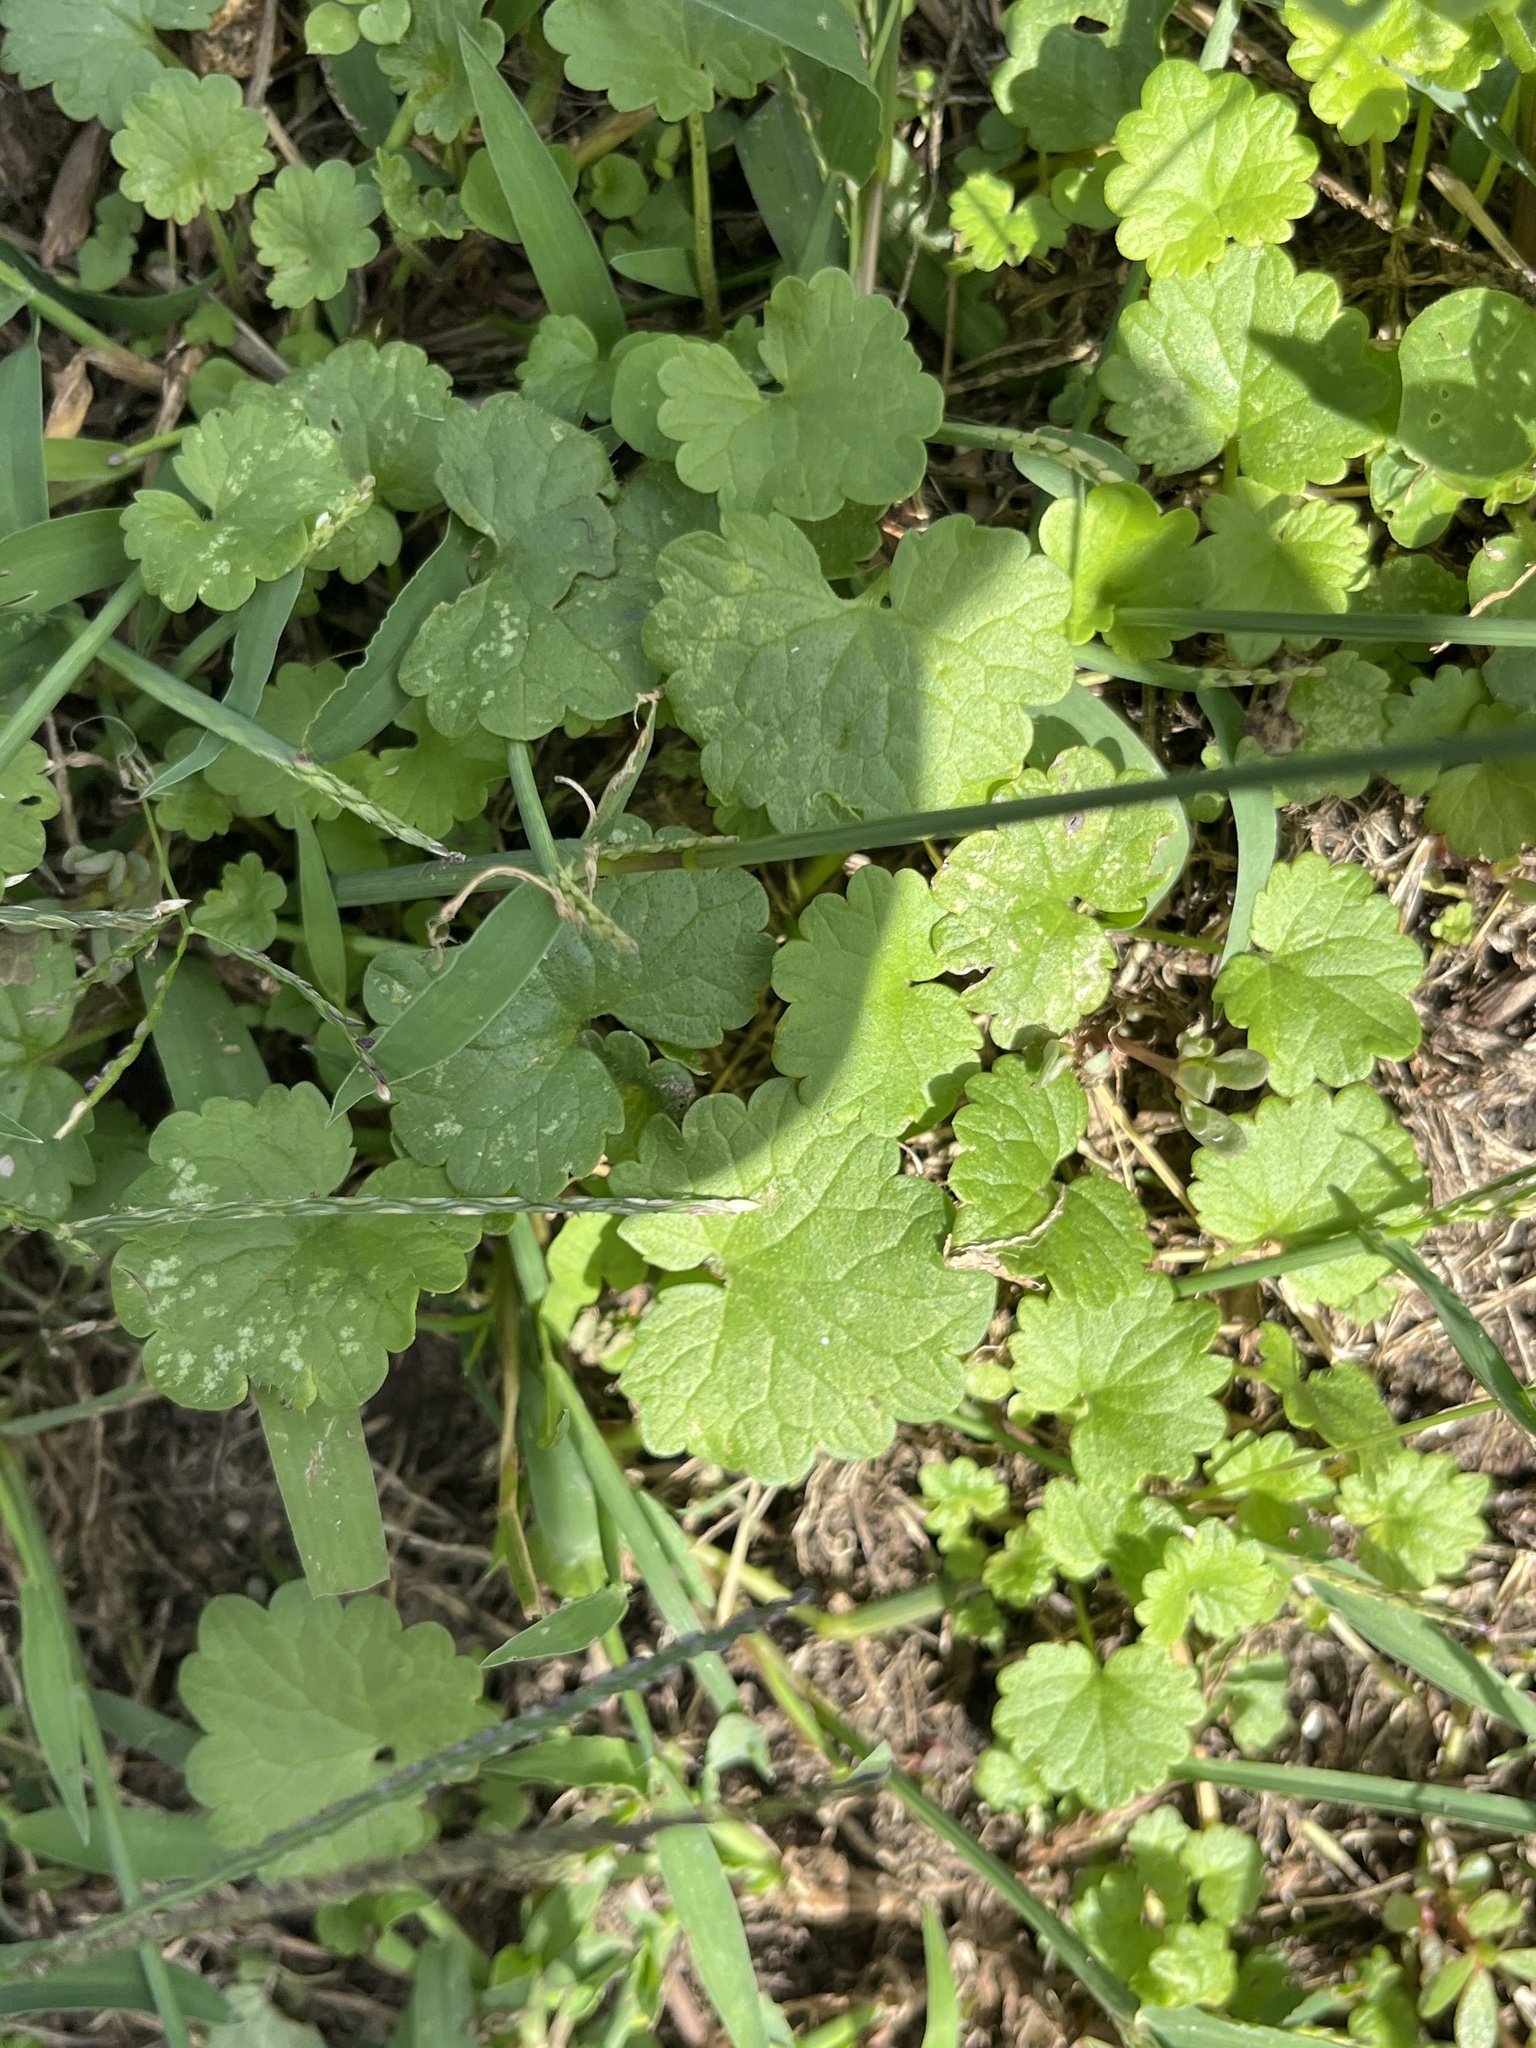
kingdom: Plantae
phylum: Tracheophyta
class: Magnoliopsida
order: Lamiales
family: Lamiaceae
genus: Glechoma
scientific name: Glechoma hederacea
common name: Ground ivy
